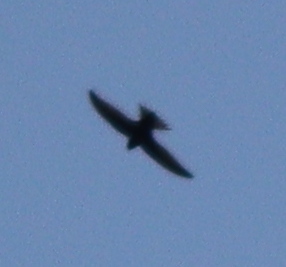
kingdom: Animalia
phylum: Chordata
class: Aves
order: Apodiformes
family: Apodidae
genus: Apus
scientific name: Apus apus
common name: Common swift
